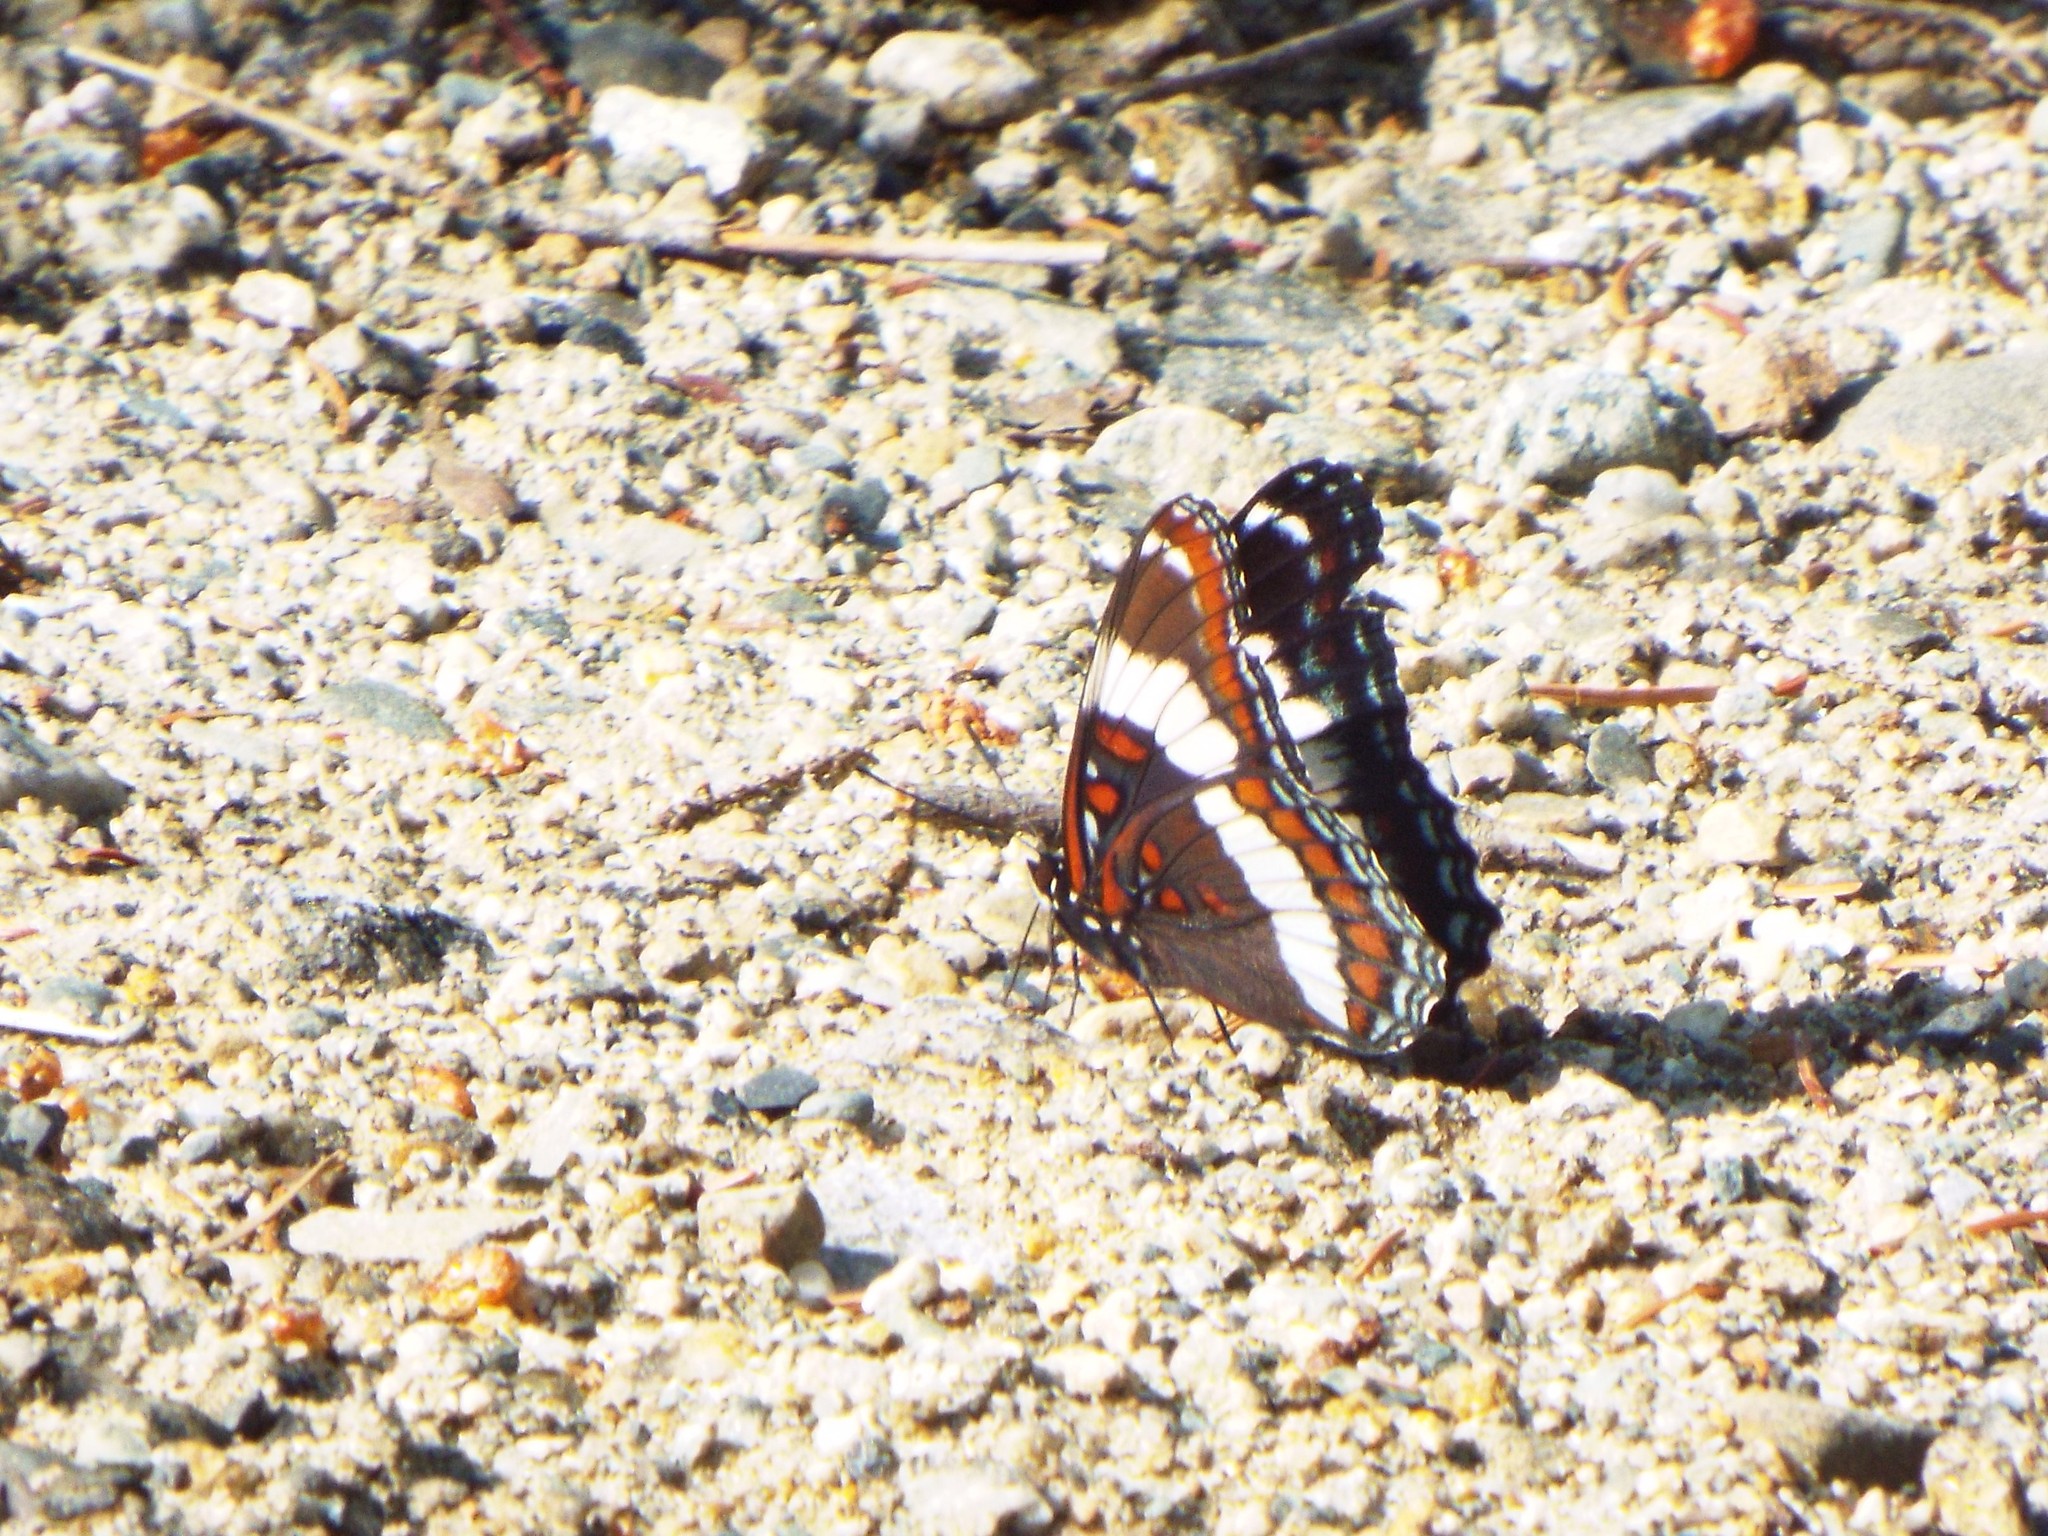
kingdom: Animalia
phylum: Arthropoda
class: Insecta
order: Lepidoptera
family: Nymphalidae
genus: Limenitis
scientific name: Limenitis arthemis
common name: Red-spotted admiral
